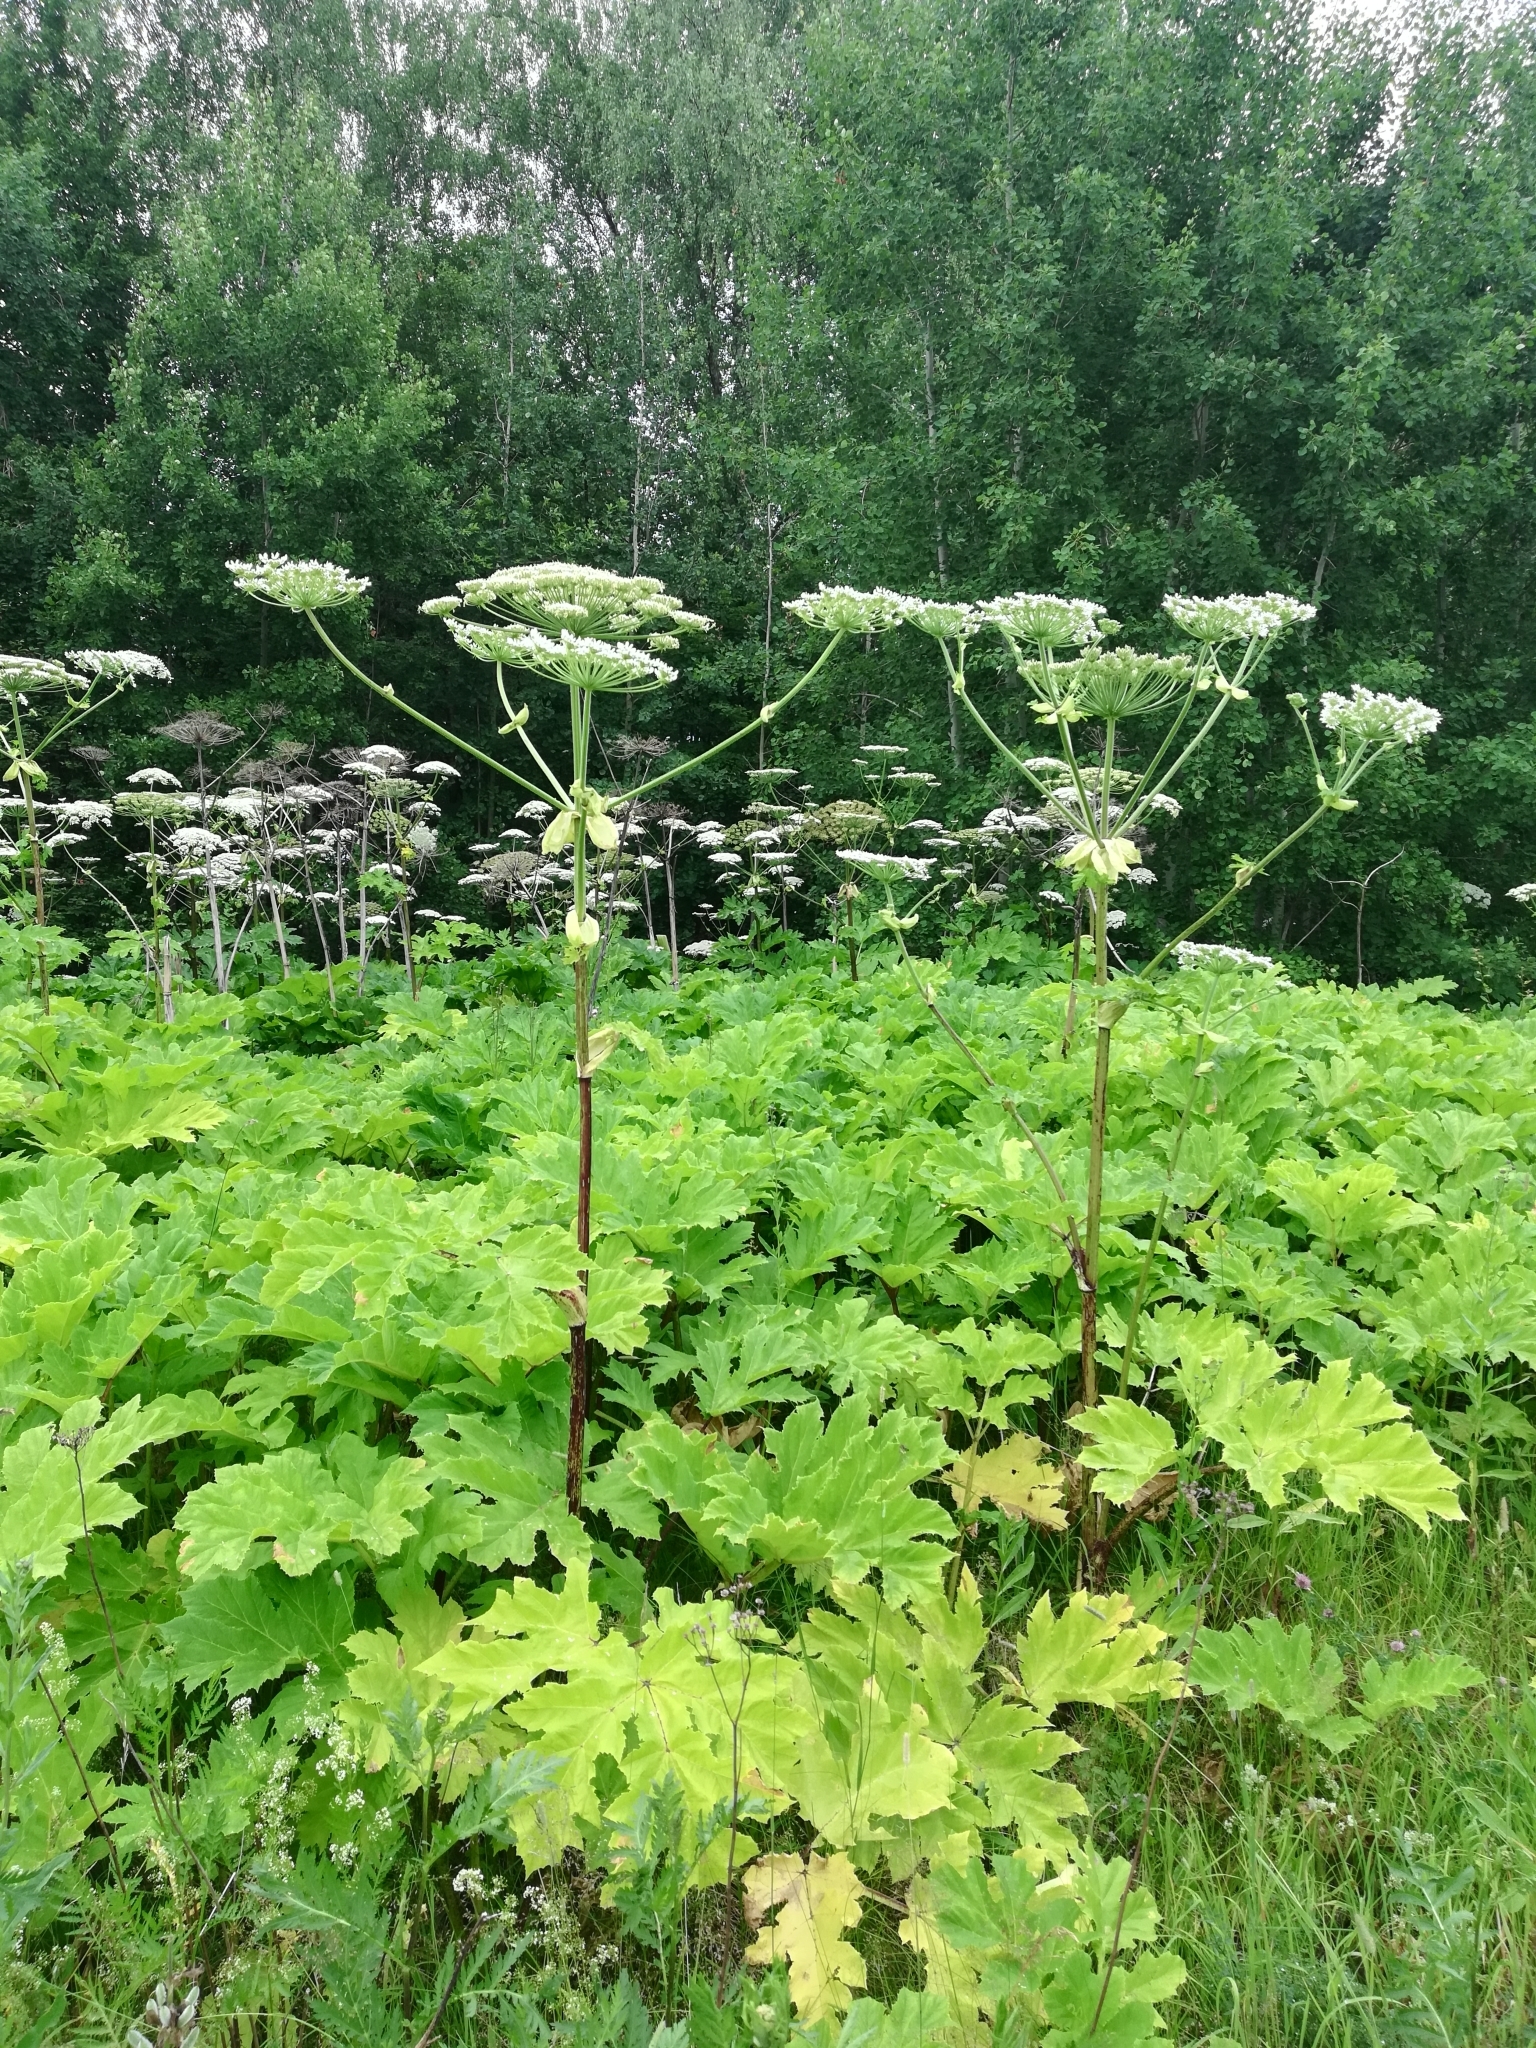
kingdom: Plantae
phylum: Tracheophyta
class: Magnoliopsida
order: Apiales
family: Apiaceae
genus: Heracleum
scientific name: Heracleum sosnowskyi
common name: Sosnowsky's hogweed
